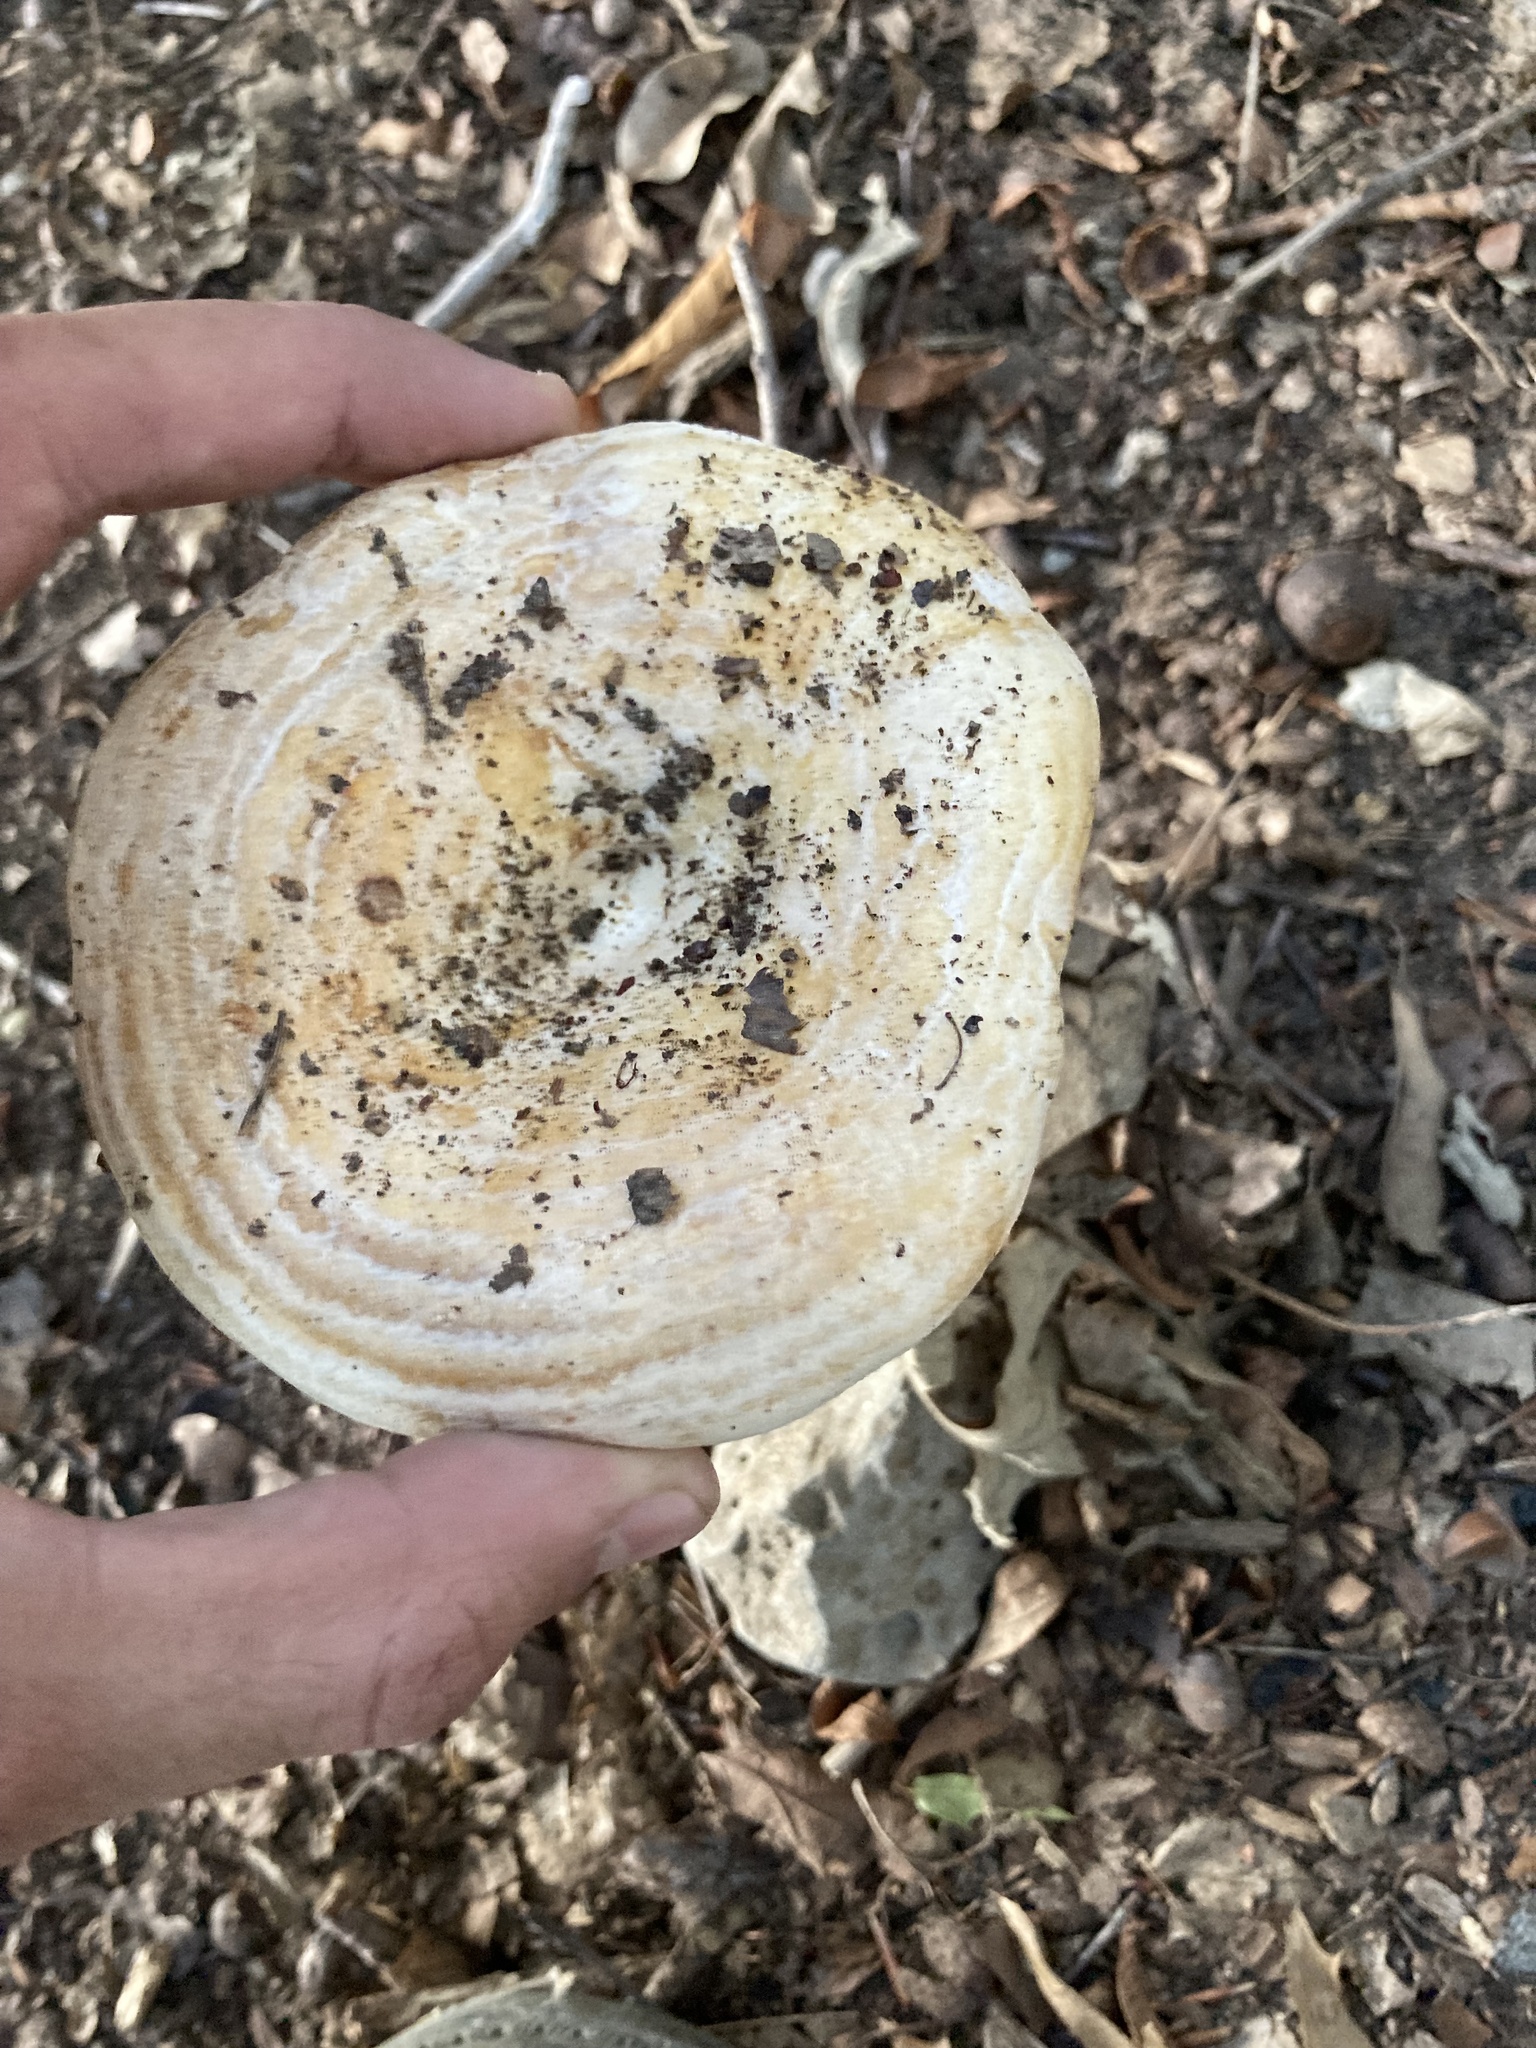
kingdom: Fungi
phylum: Basidiomycota
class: Agaricomycetes
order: Russulales
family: Russulaceae
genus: Lactarius
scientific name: Lactarius psammicola
